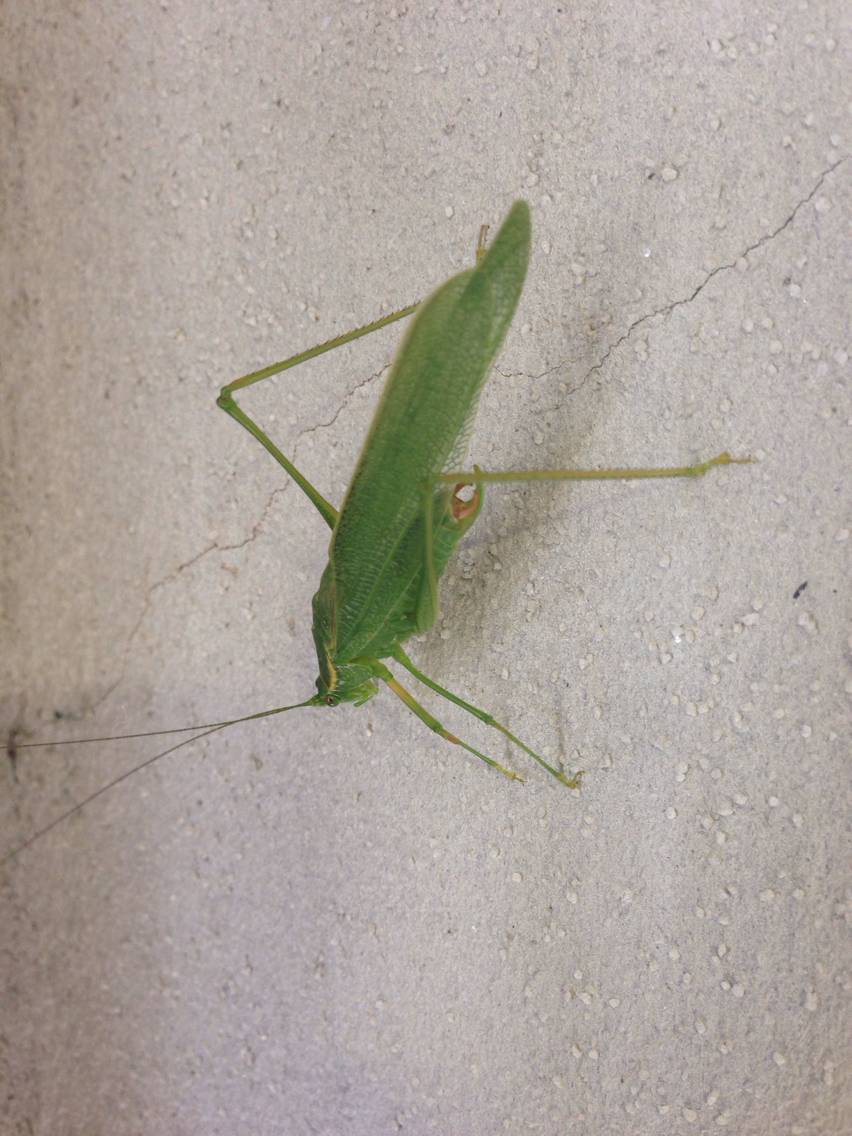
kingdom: Animalia
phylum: Arthropoda
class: Insecta
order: Orthoptera
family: Tettigoniidae
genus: Scudderia
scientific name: Scudderia septentrionalis
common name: Northern bush-katydid
